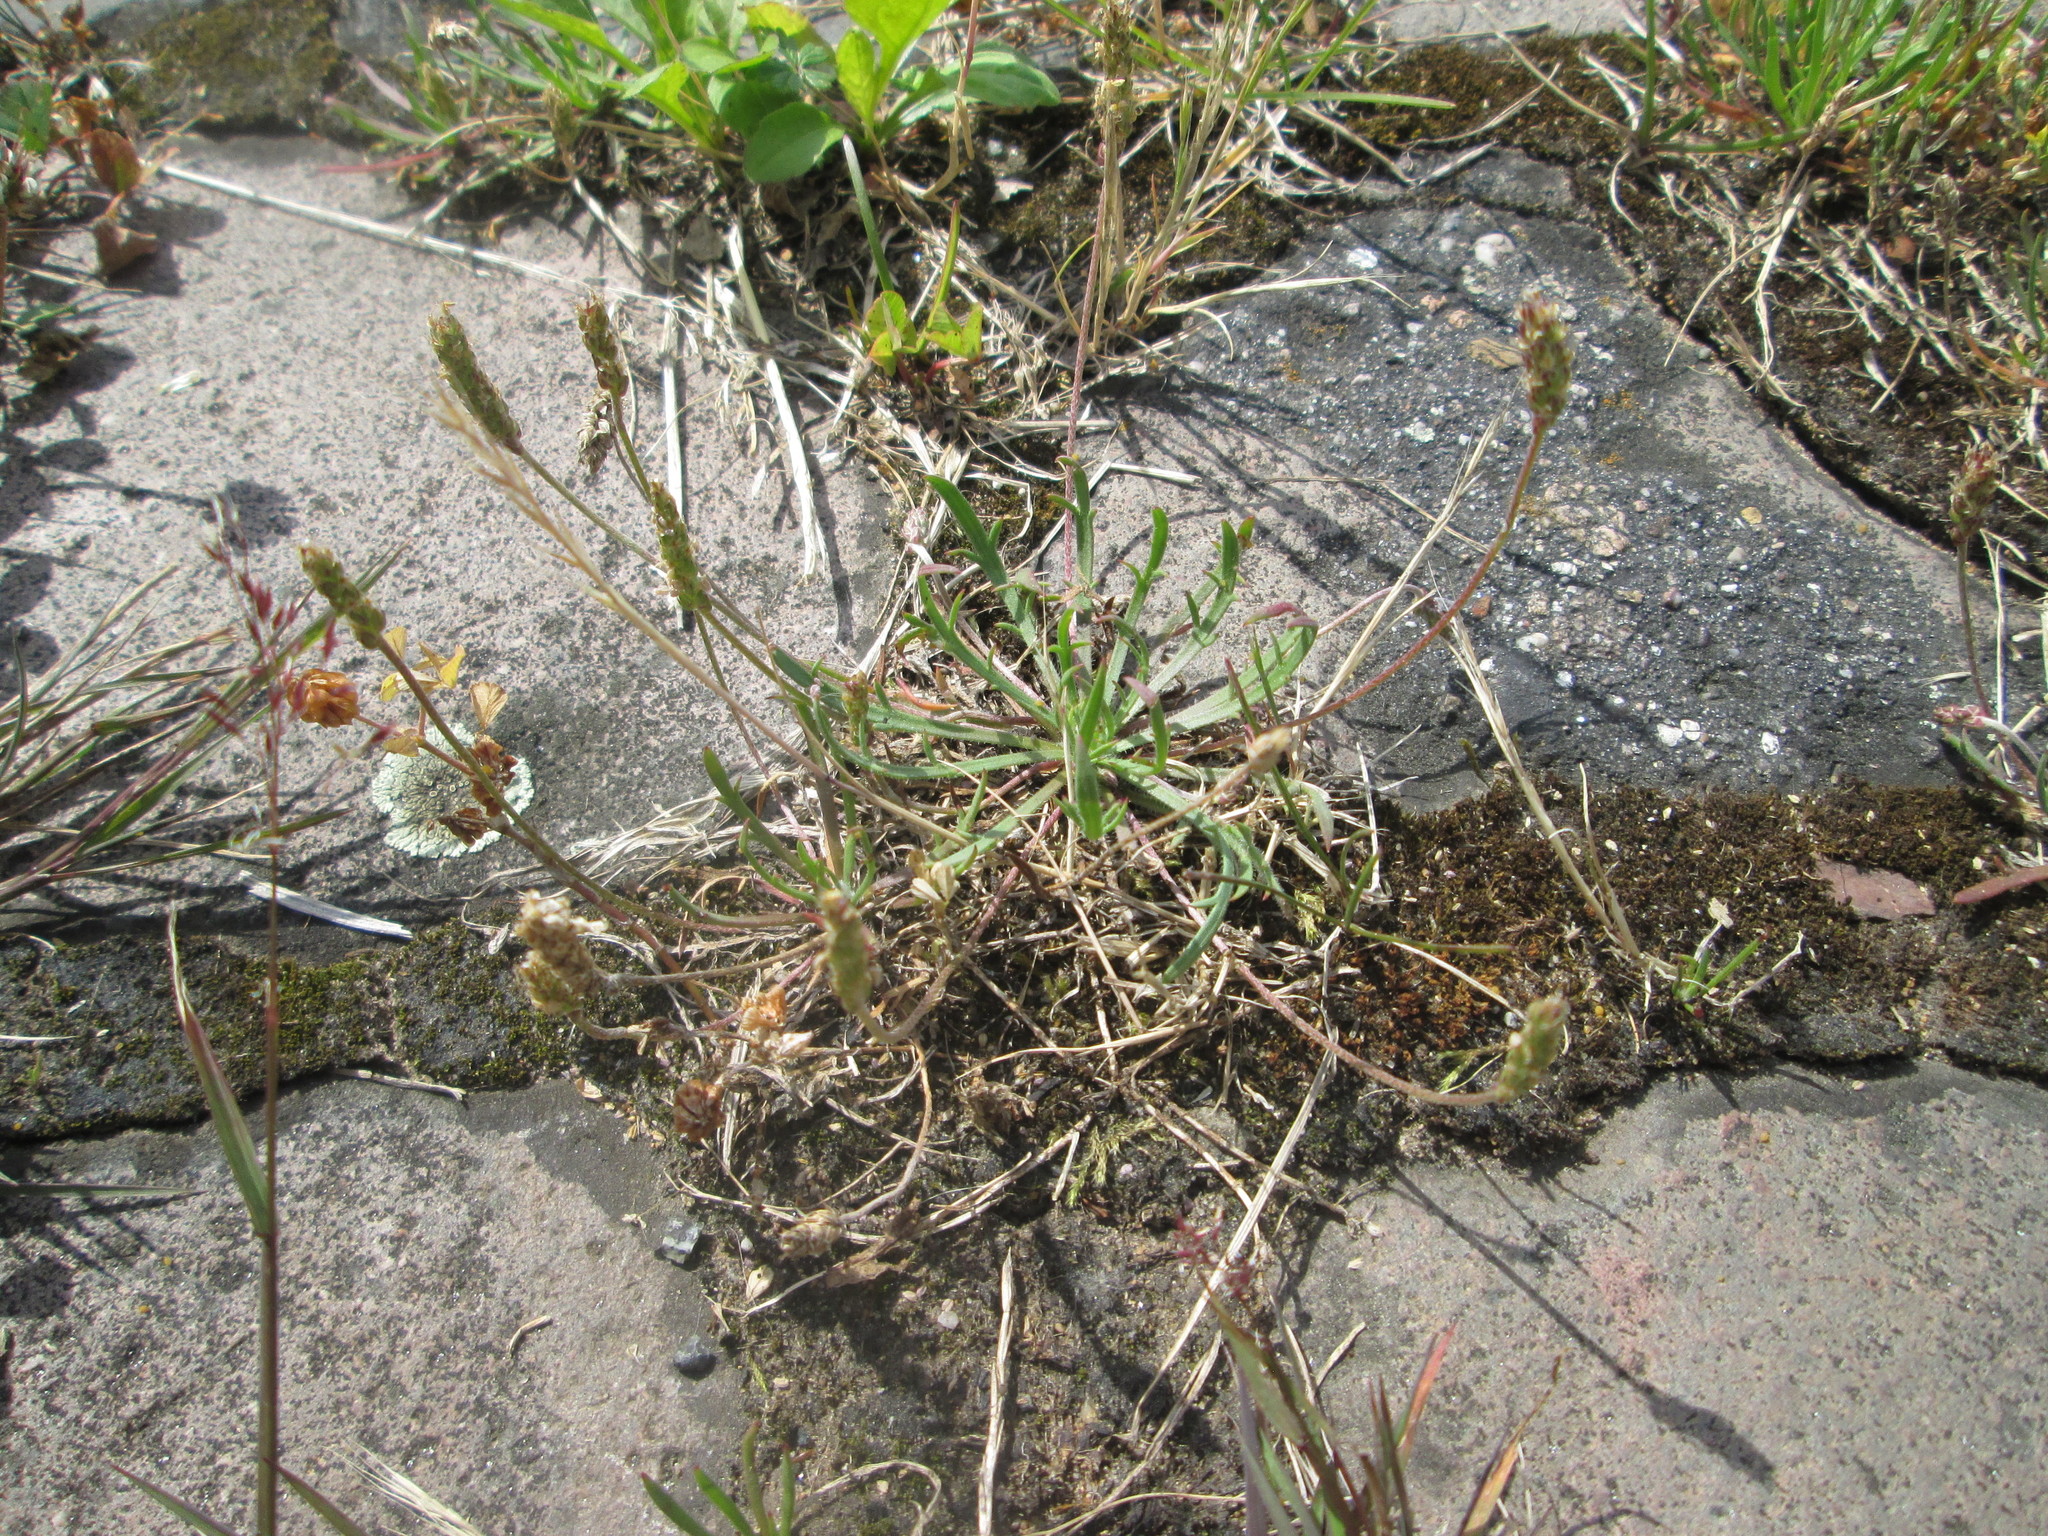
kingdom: Plantae
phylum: Tracheophyta
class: Magnoliopsida
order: Lamiales
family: Plantaginaceae
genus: Plantago
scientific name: Plantago coronopus
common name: Buck's-horn plantain
